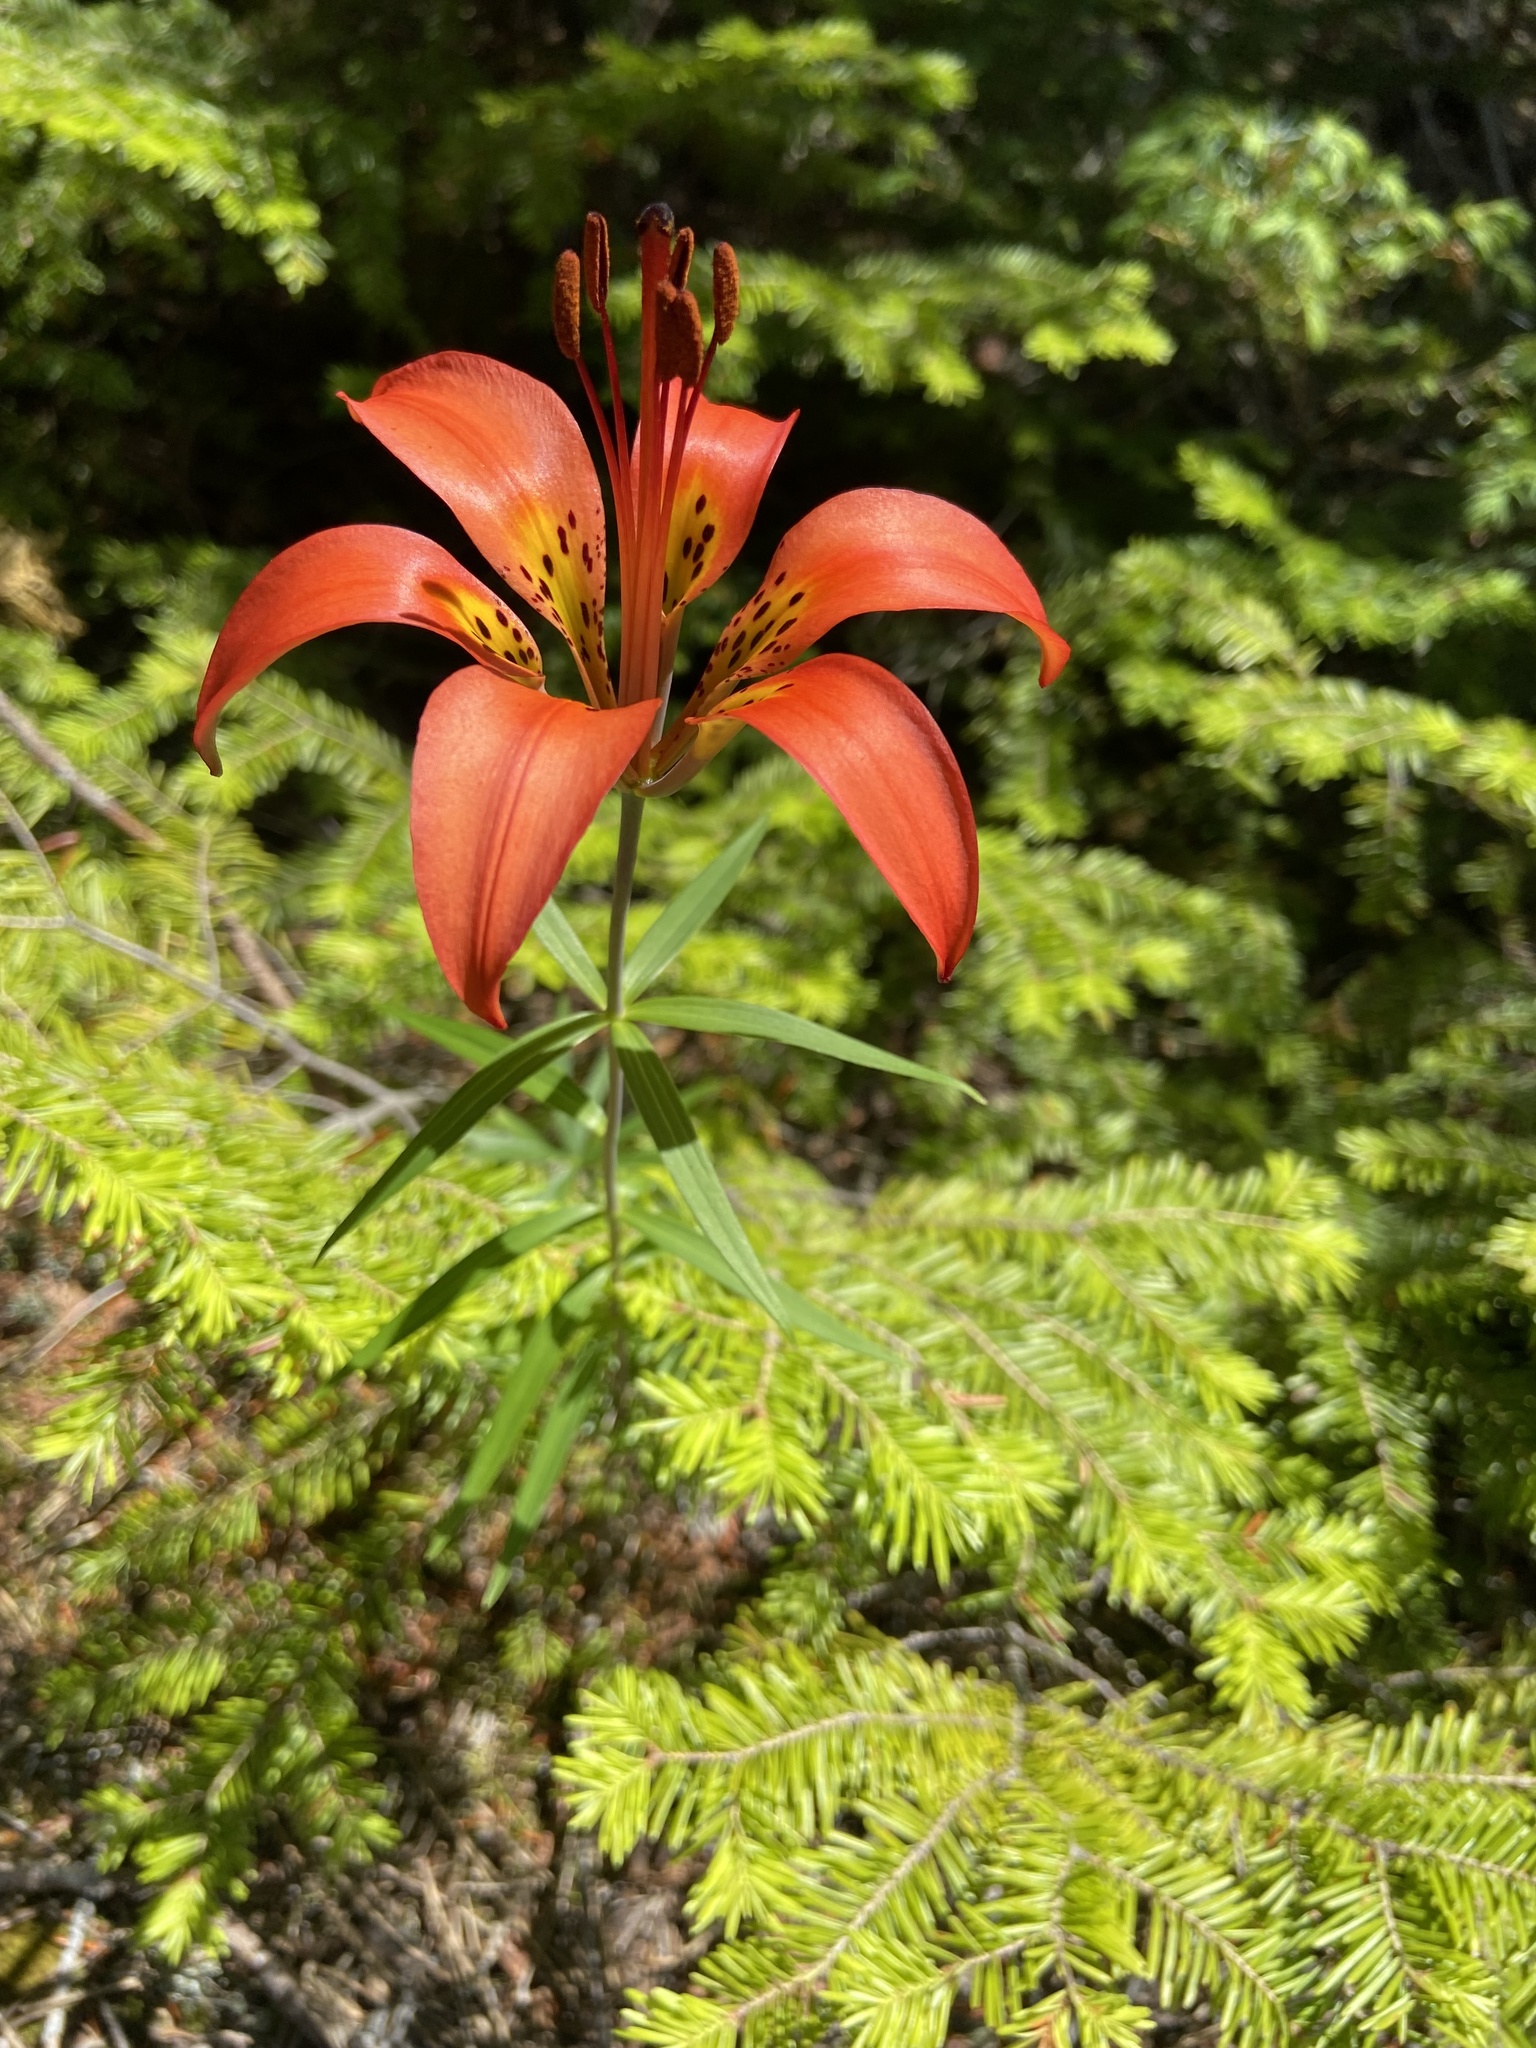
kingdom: Plantae
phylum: Tracheophyta
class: Liliopsida
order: Liliales
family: Liliaceae
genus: Lilium
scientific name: Lilium philadelphicum
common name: Red lily
